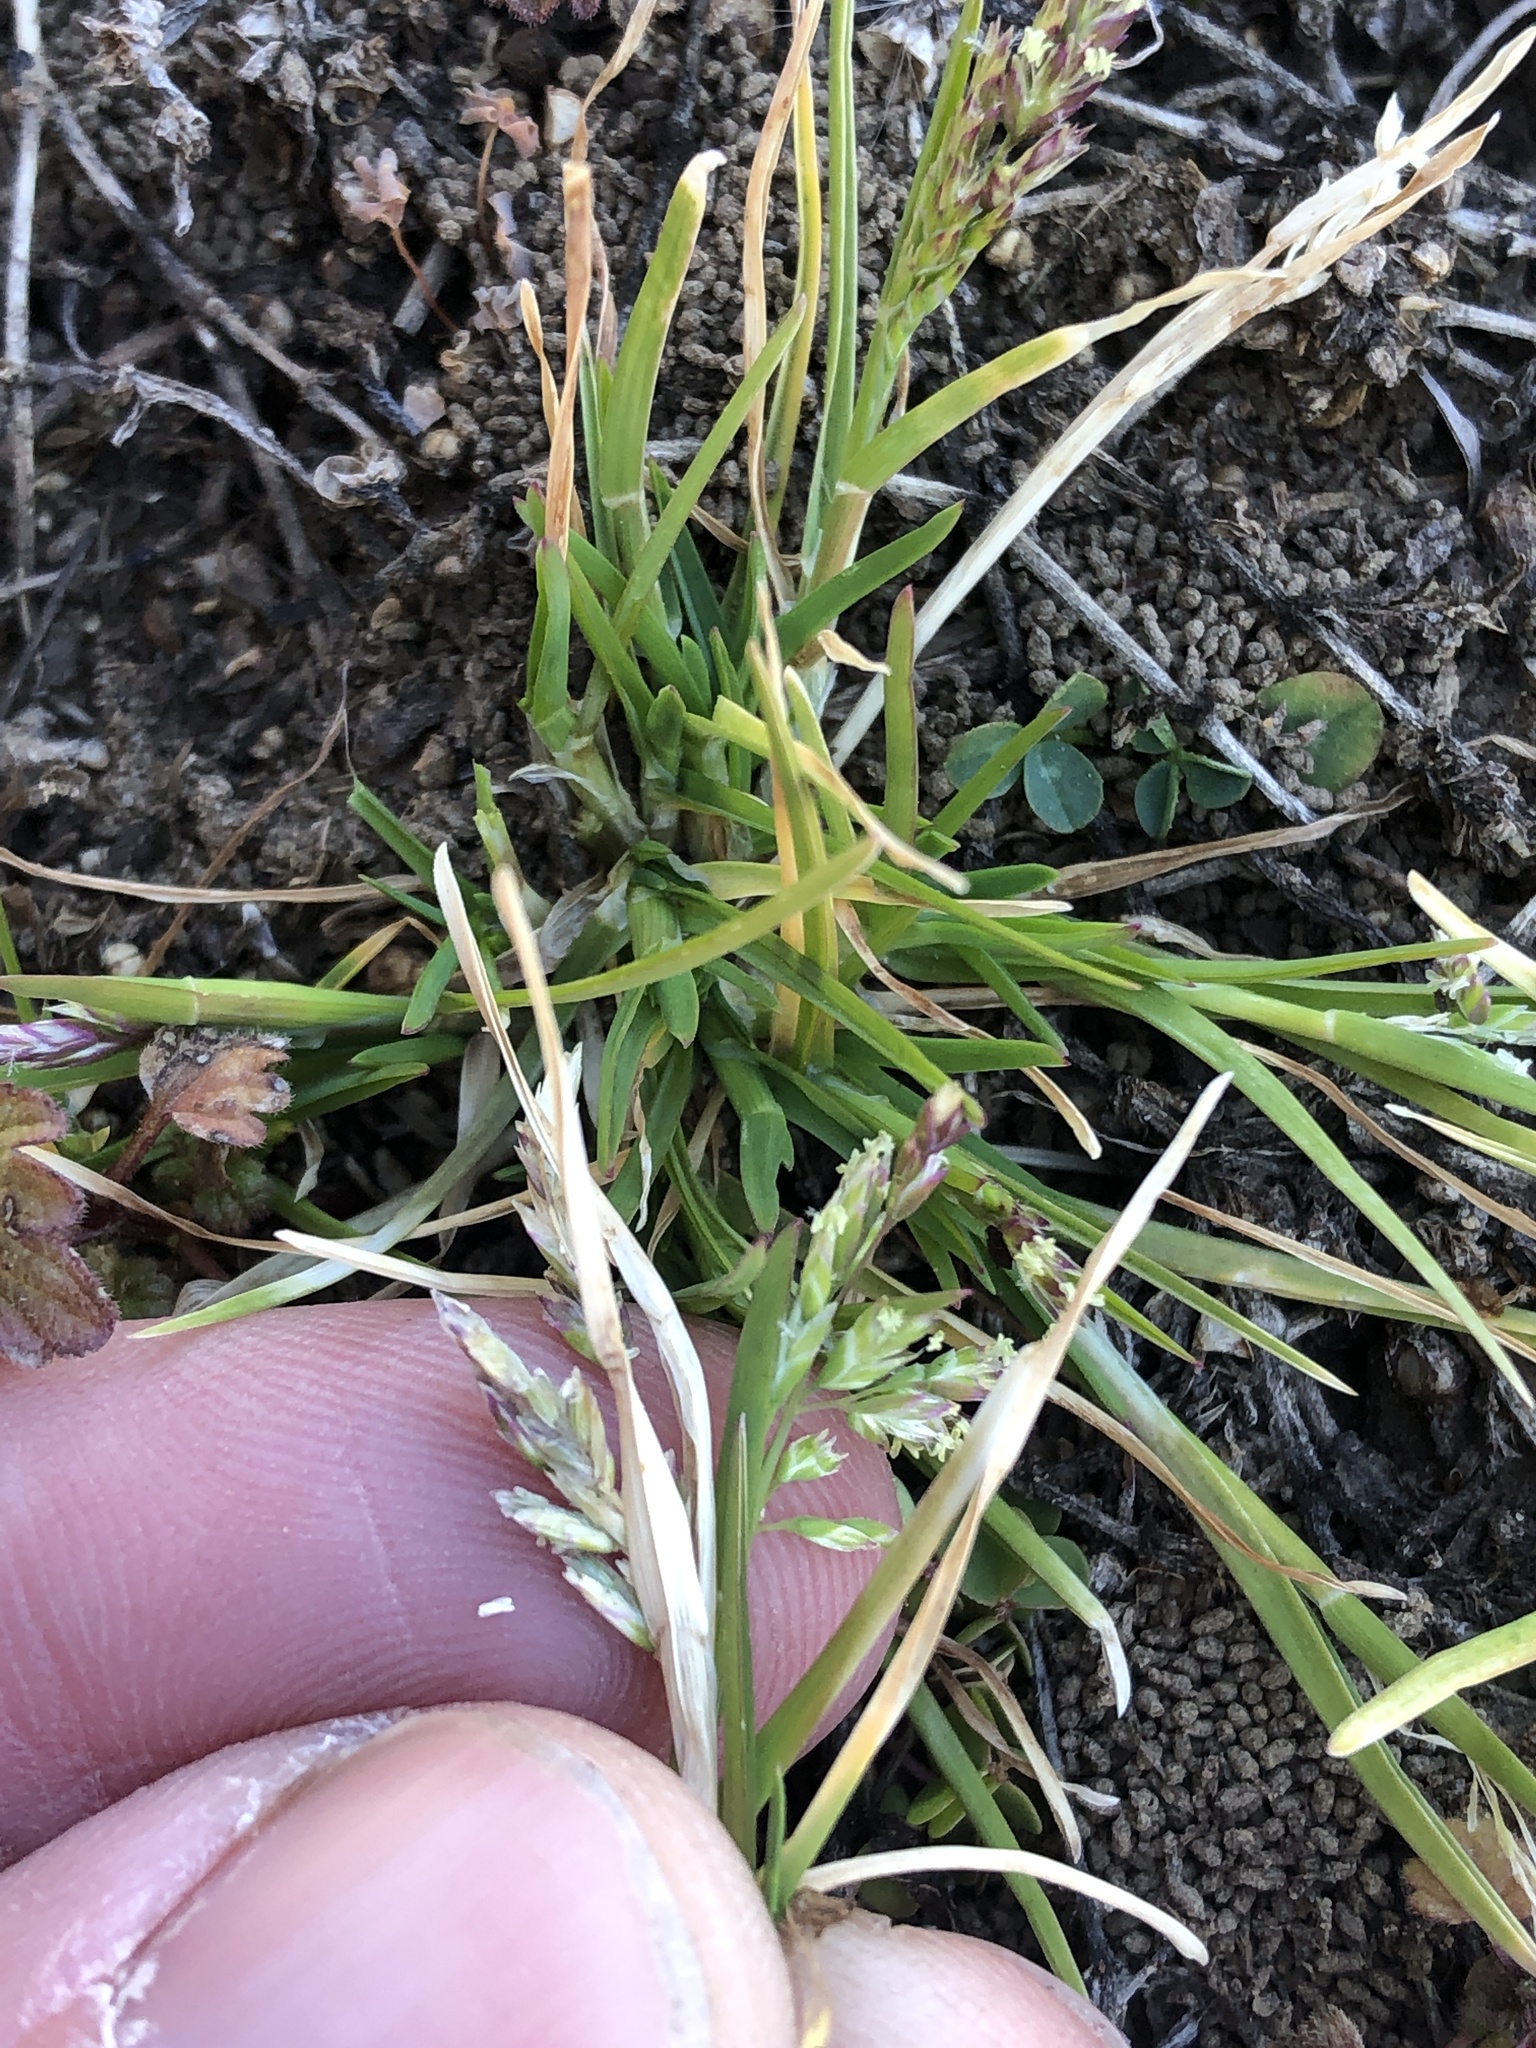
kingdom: Plantae
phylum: Tracheophyta
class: Liliopsida
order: Poales
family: Poaceae
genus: Poa
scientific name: Poa annua
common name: Annual bluegrass
